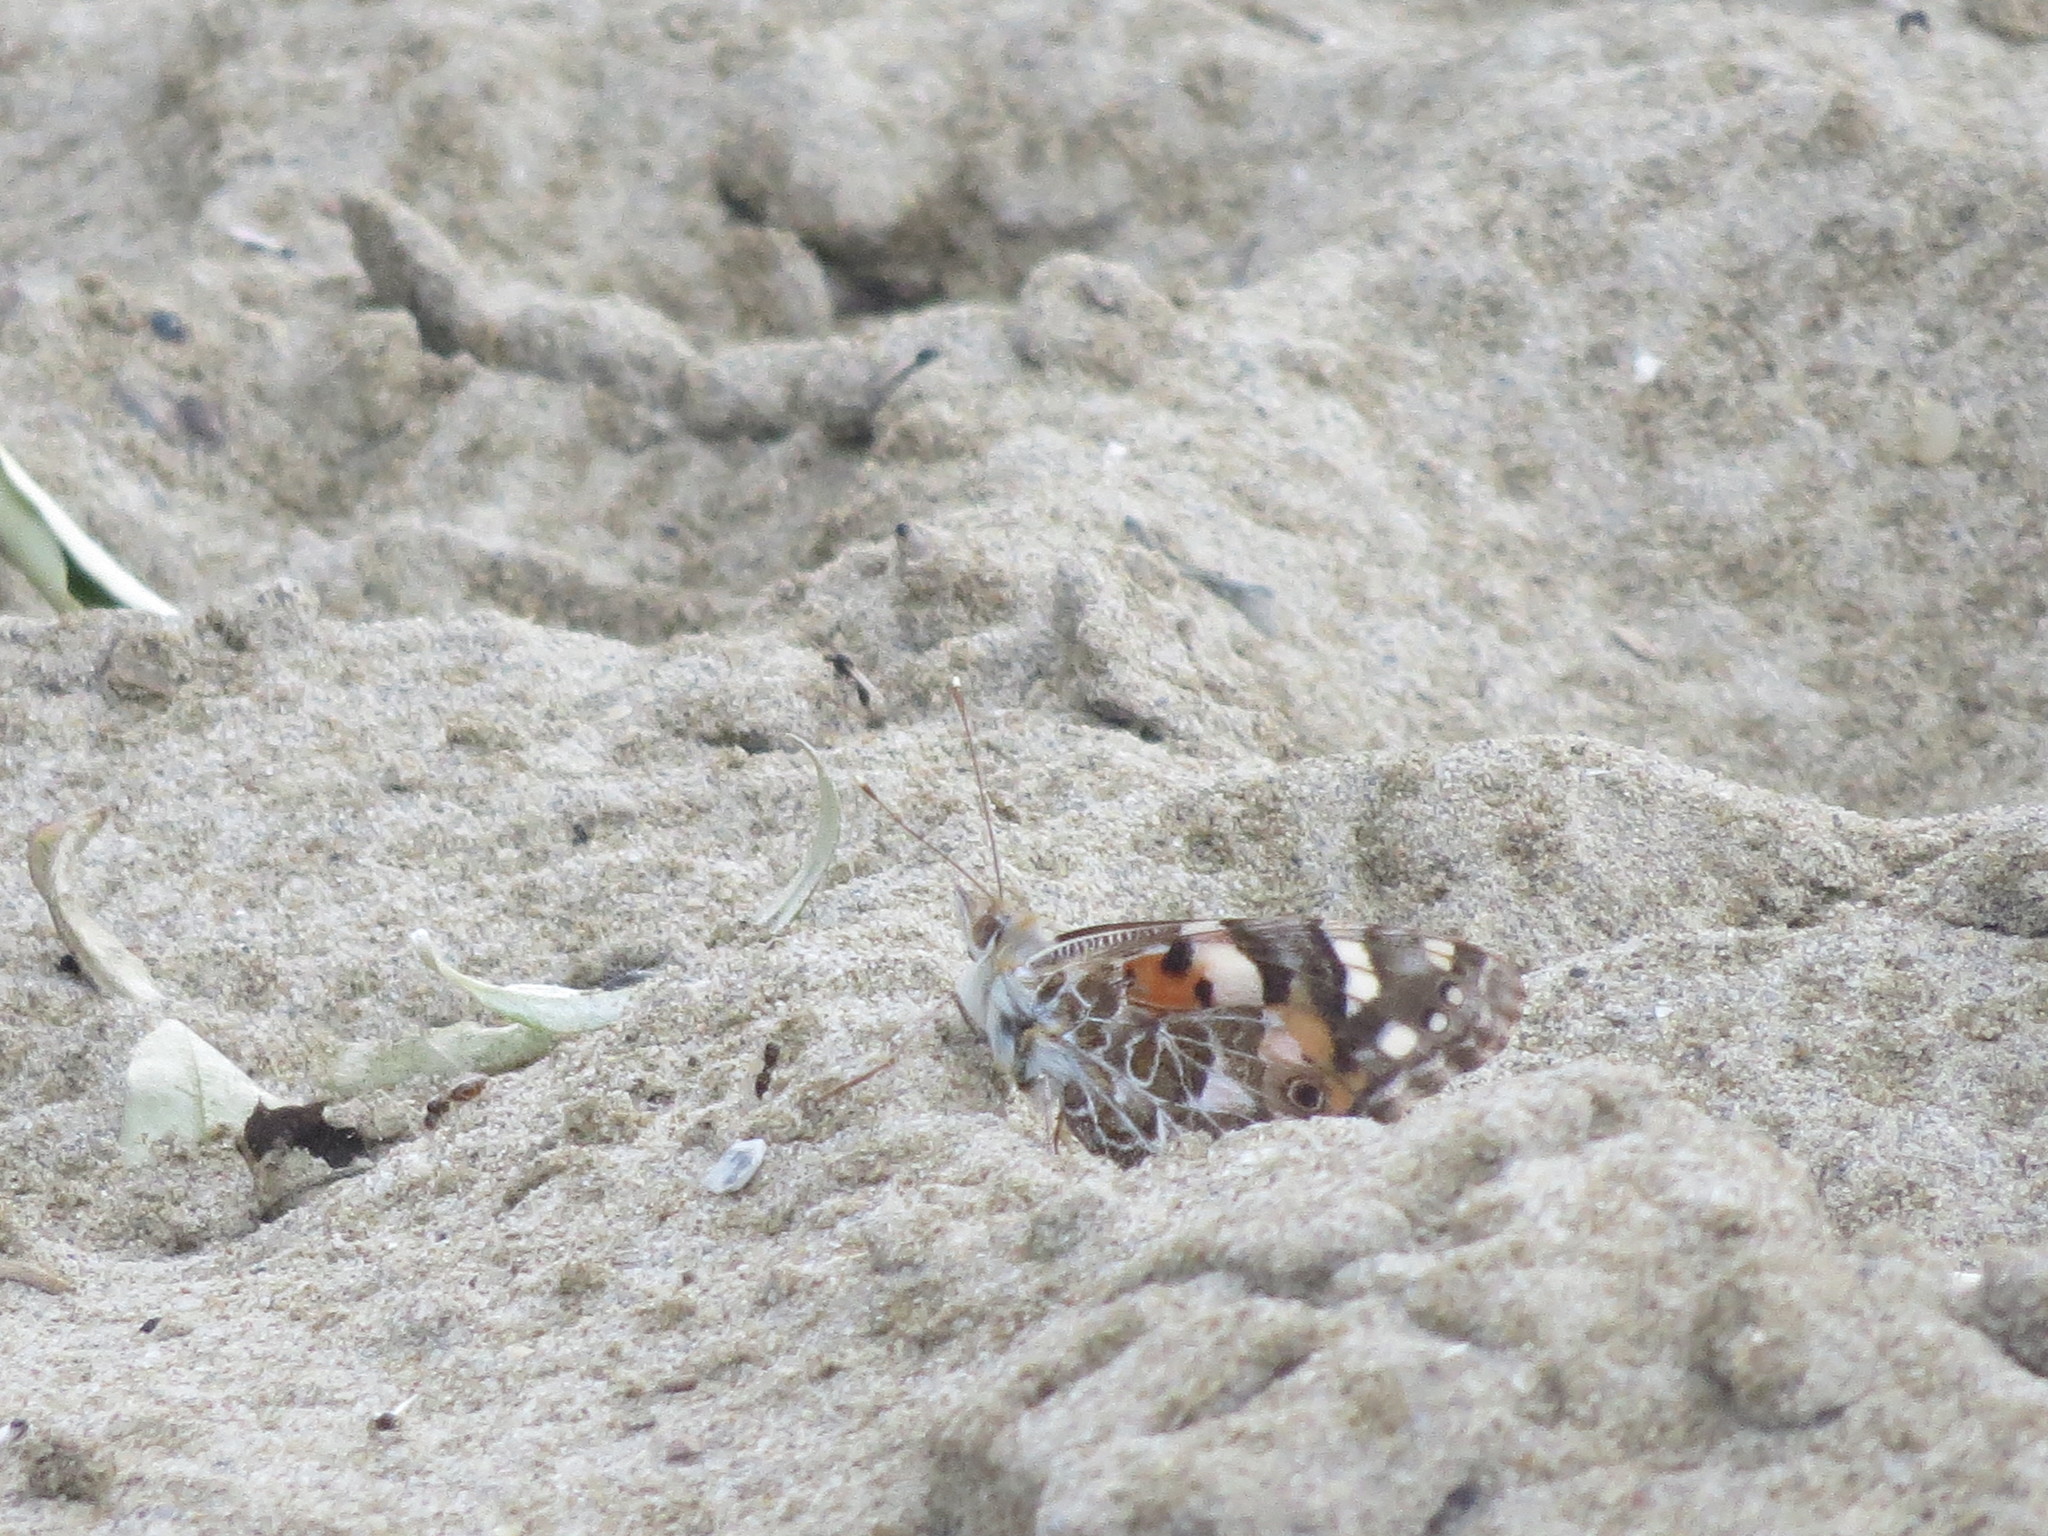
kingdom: Animalia
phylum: Arthropoda
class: Insecta
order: Lepidoptera
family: Nymphalidae
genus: Vanessa
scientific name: Vanessa cardui
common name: Painted lady
